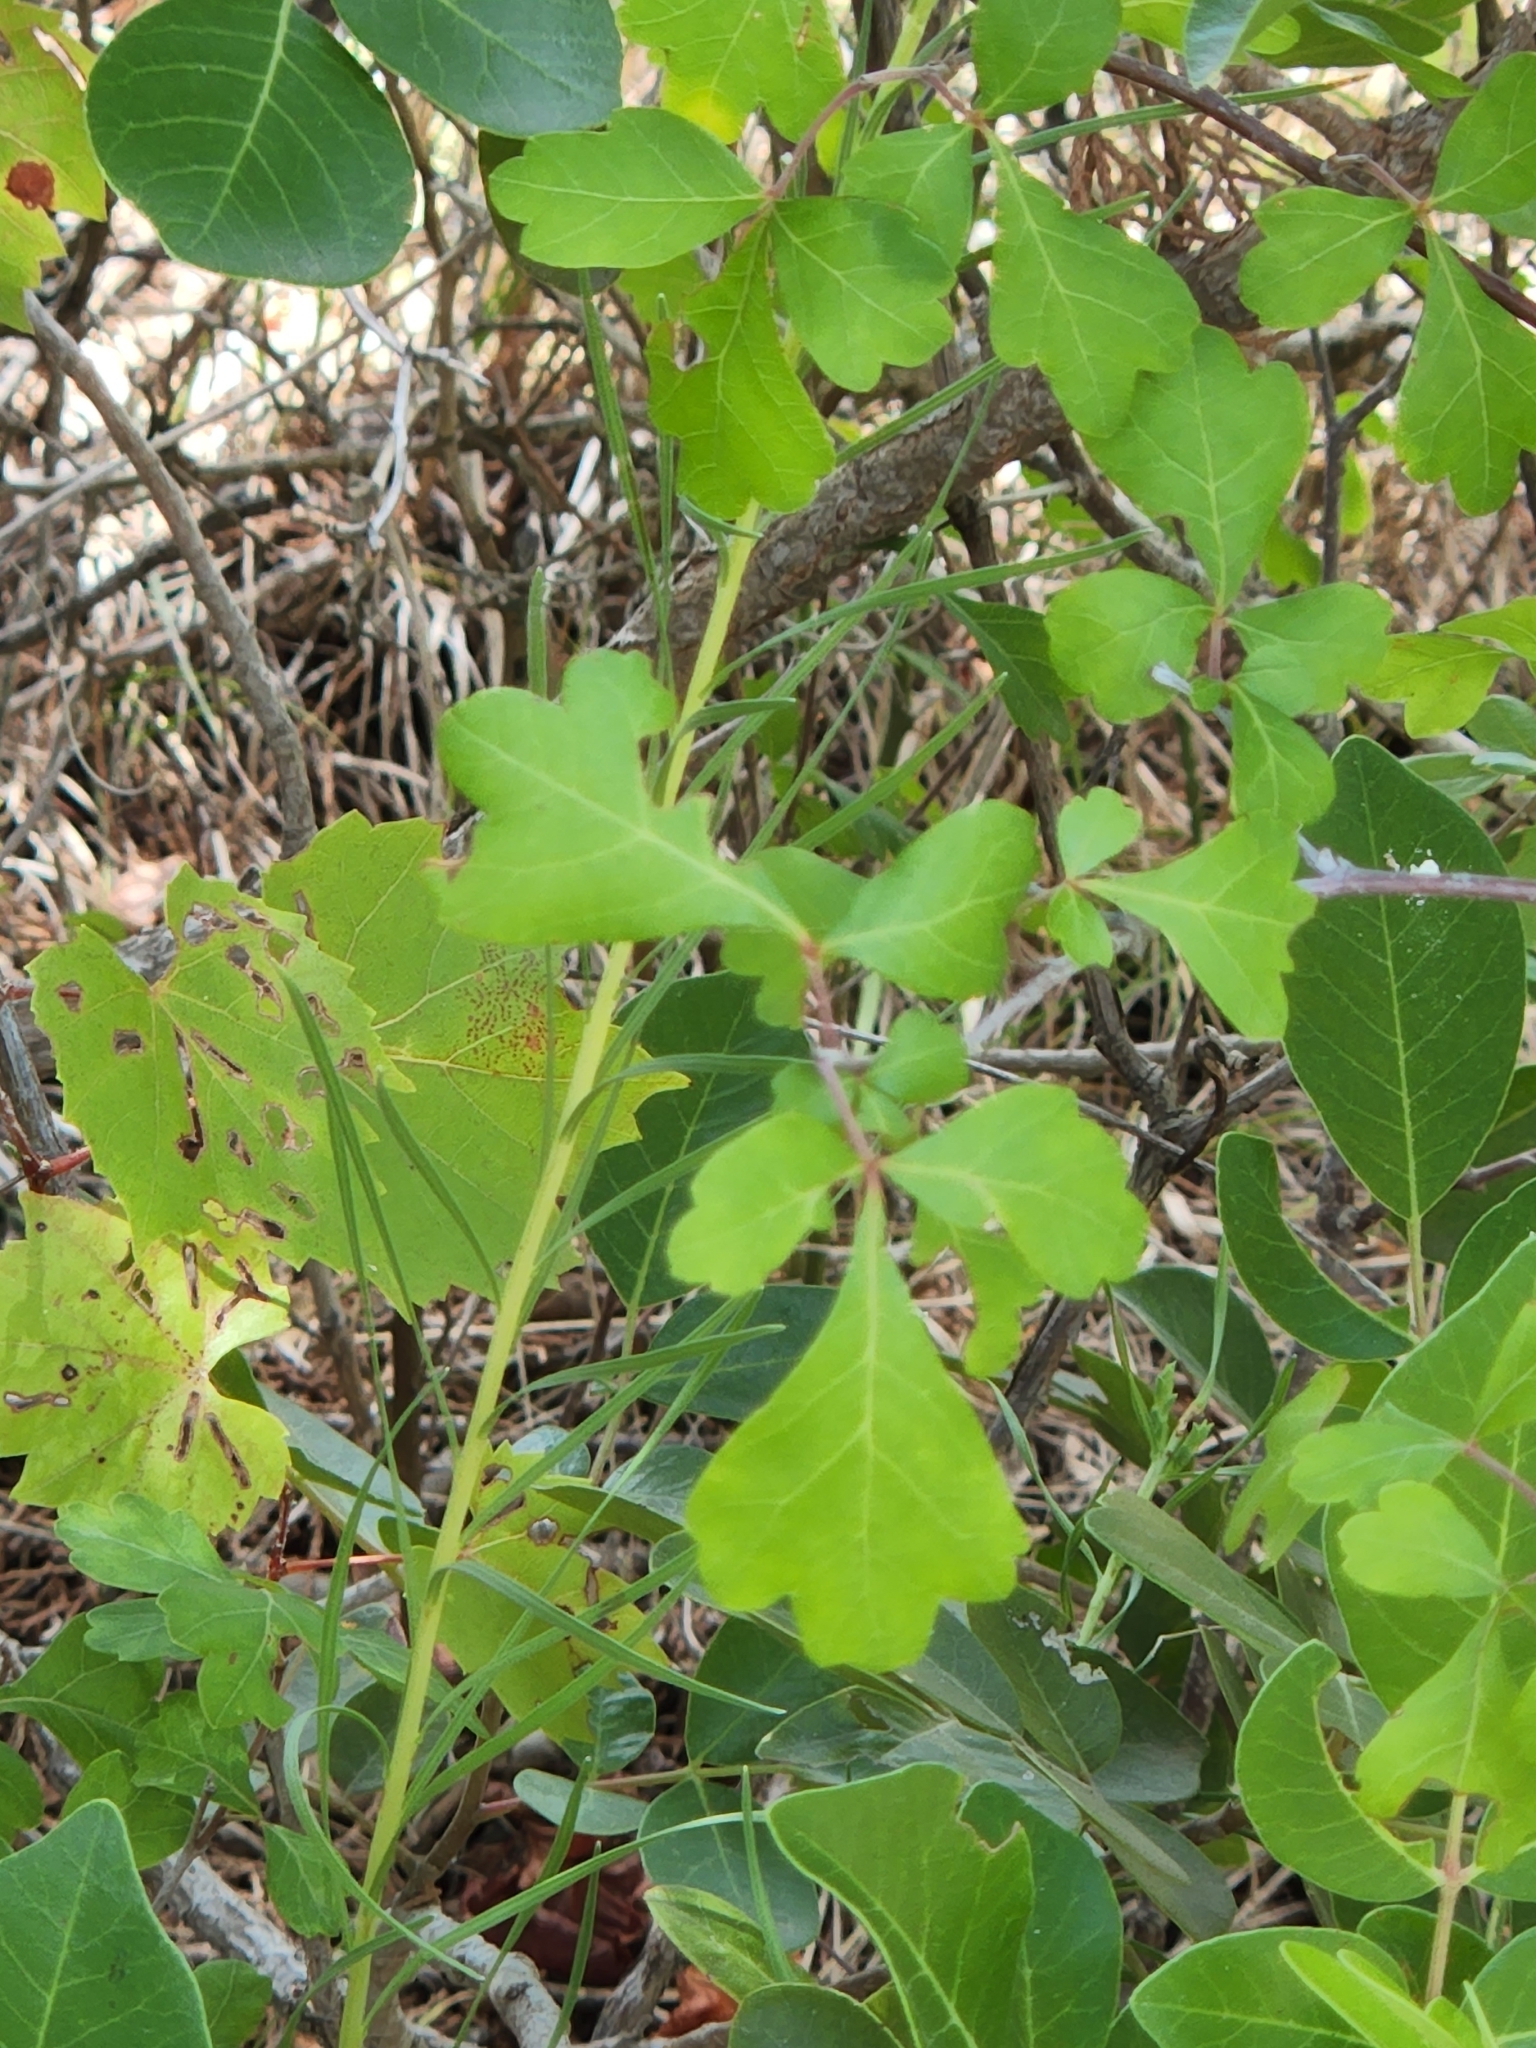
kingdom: Plantae
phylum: Tracheophyta
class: Magnoliopsida
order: Sapindales
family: Anacardiaceae
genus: Rhus
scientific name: Rhus aromatica
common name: Aromatic sumac
